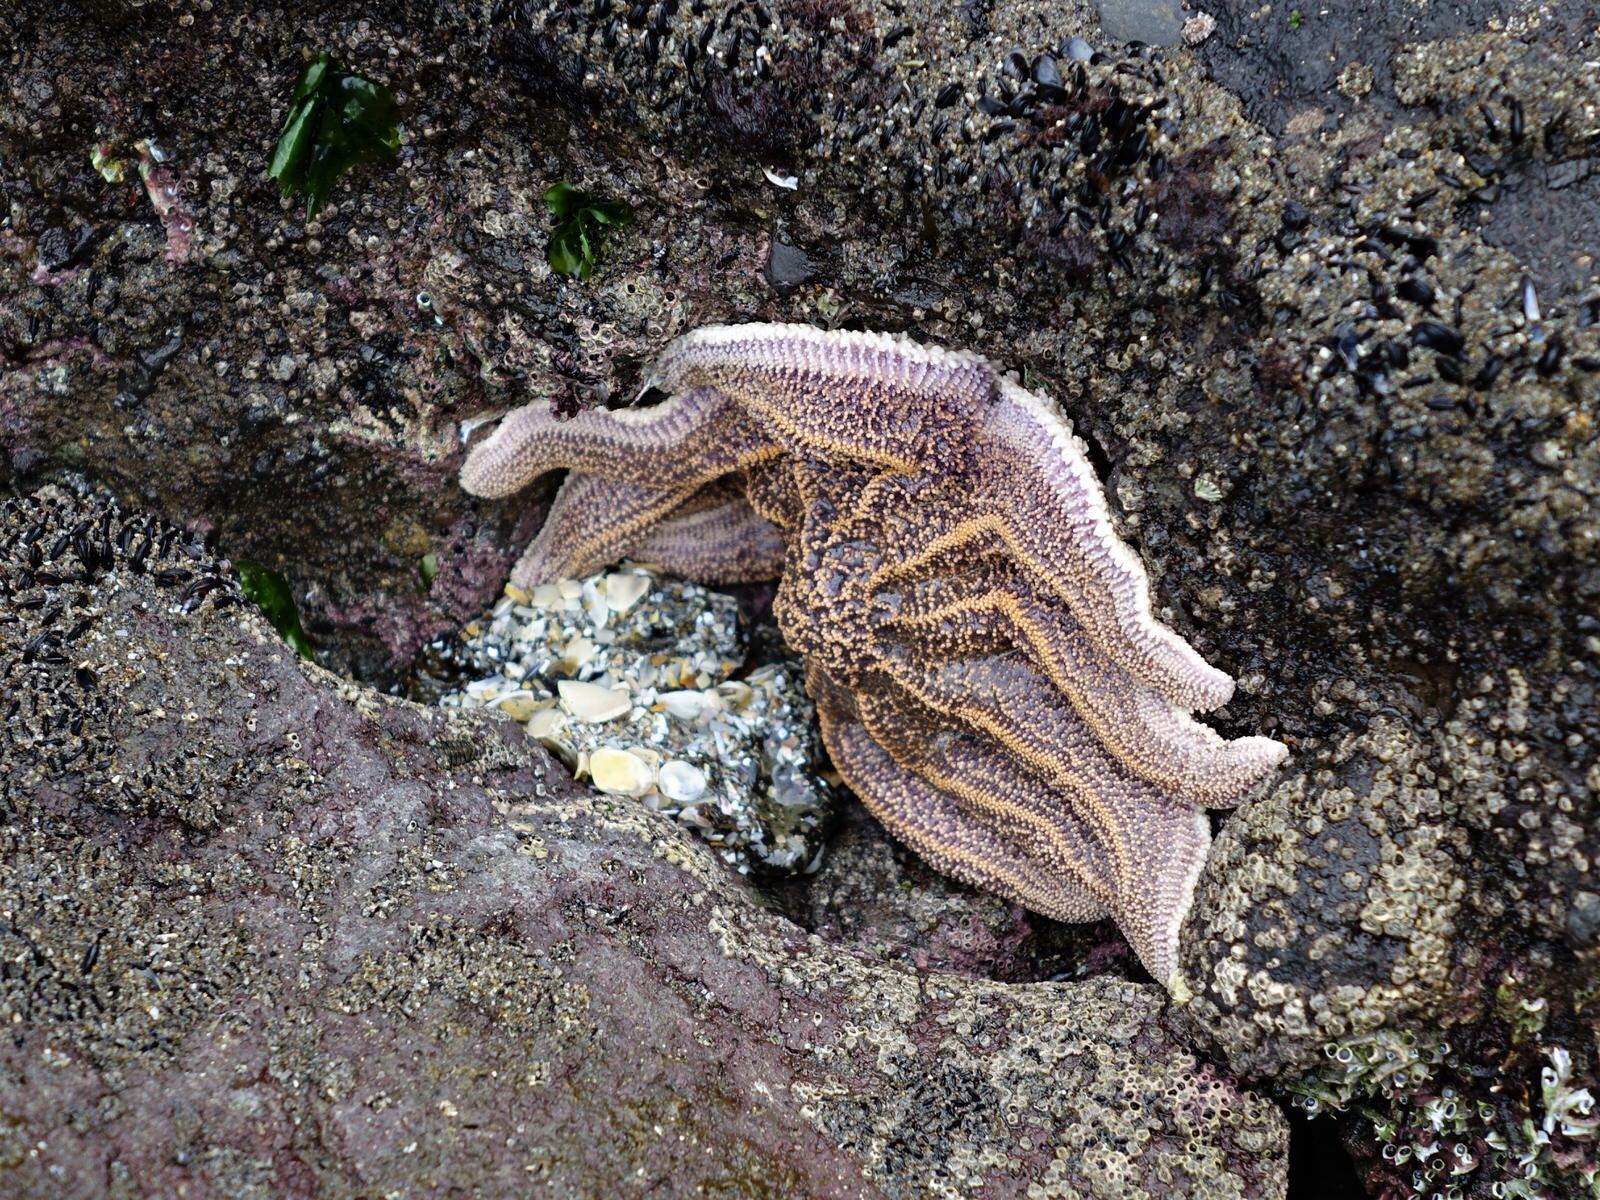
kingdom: Animalia
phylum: Echinodermata
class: Asteroidea
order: Forcipulatida
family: Stichasteridae
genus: Stichaster
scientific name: Stichaster australis
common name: Reef starfish
